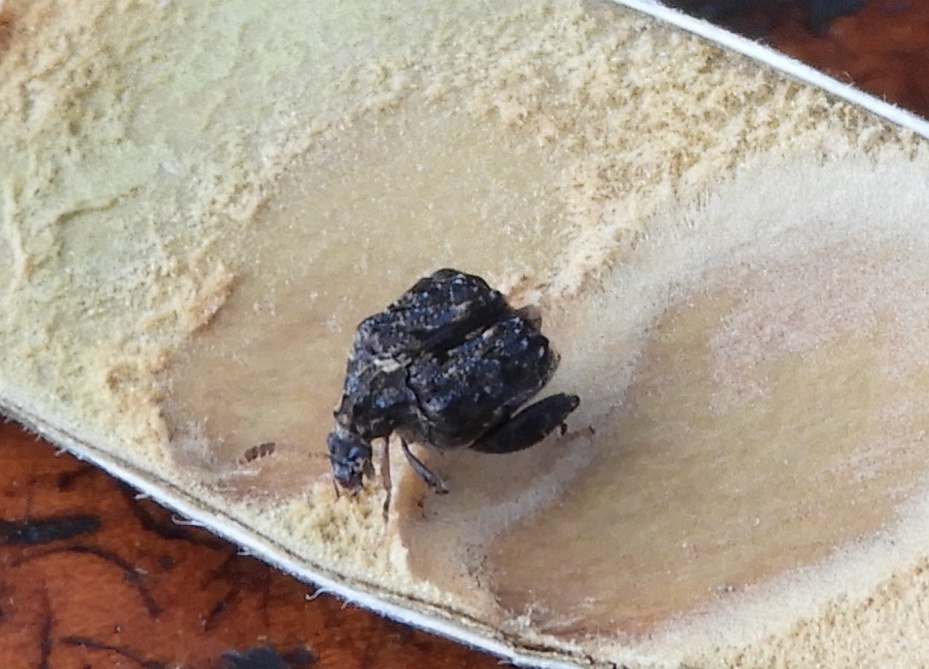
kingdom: Animalia
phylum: Arthropoda
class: Insecta
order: Coleoptera
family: Bruchidae
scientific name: Bruchidae
